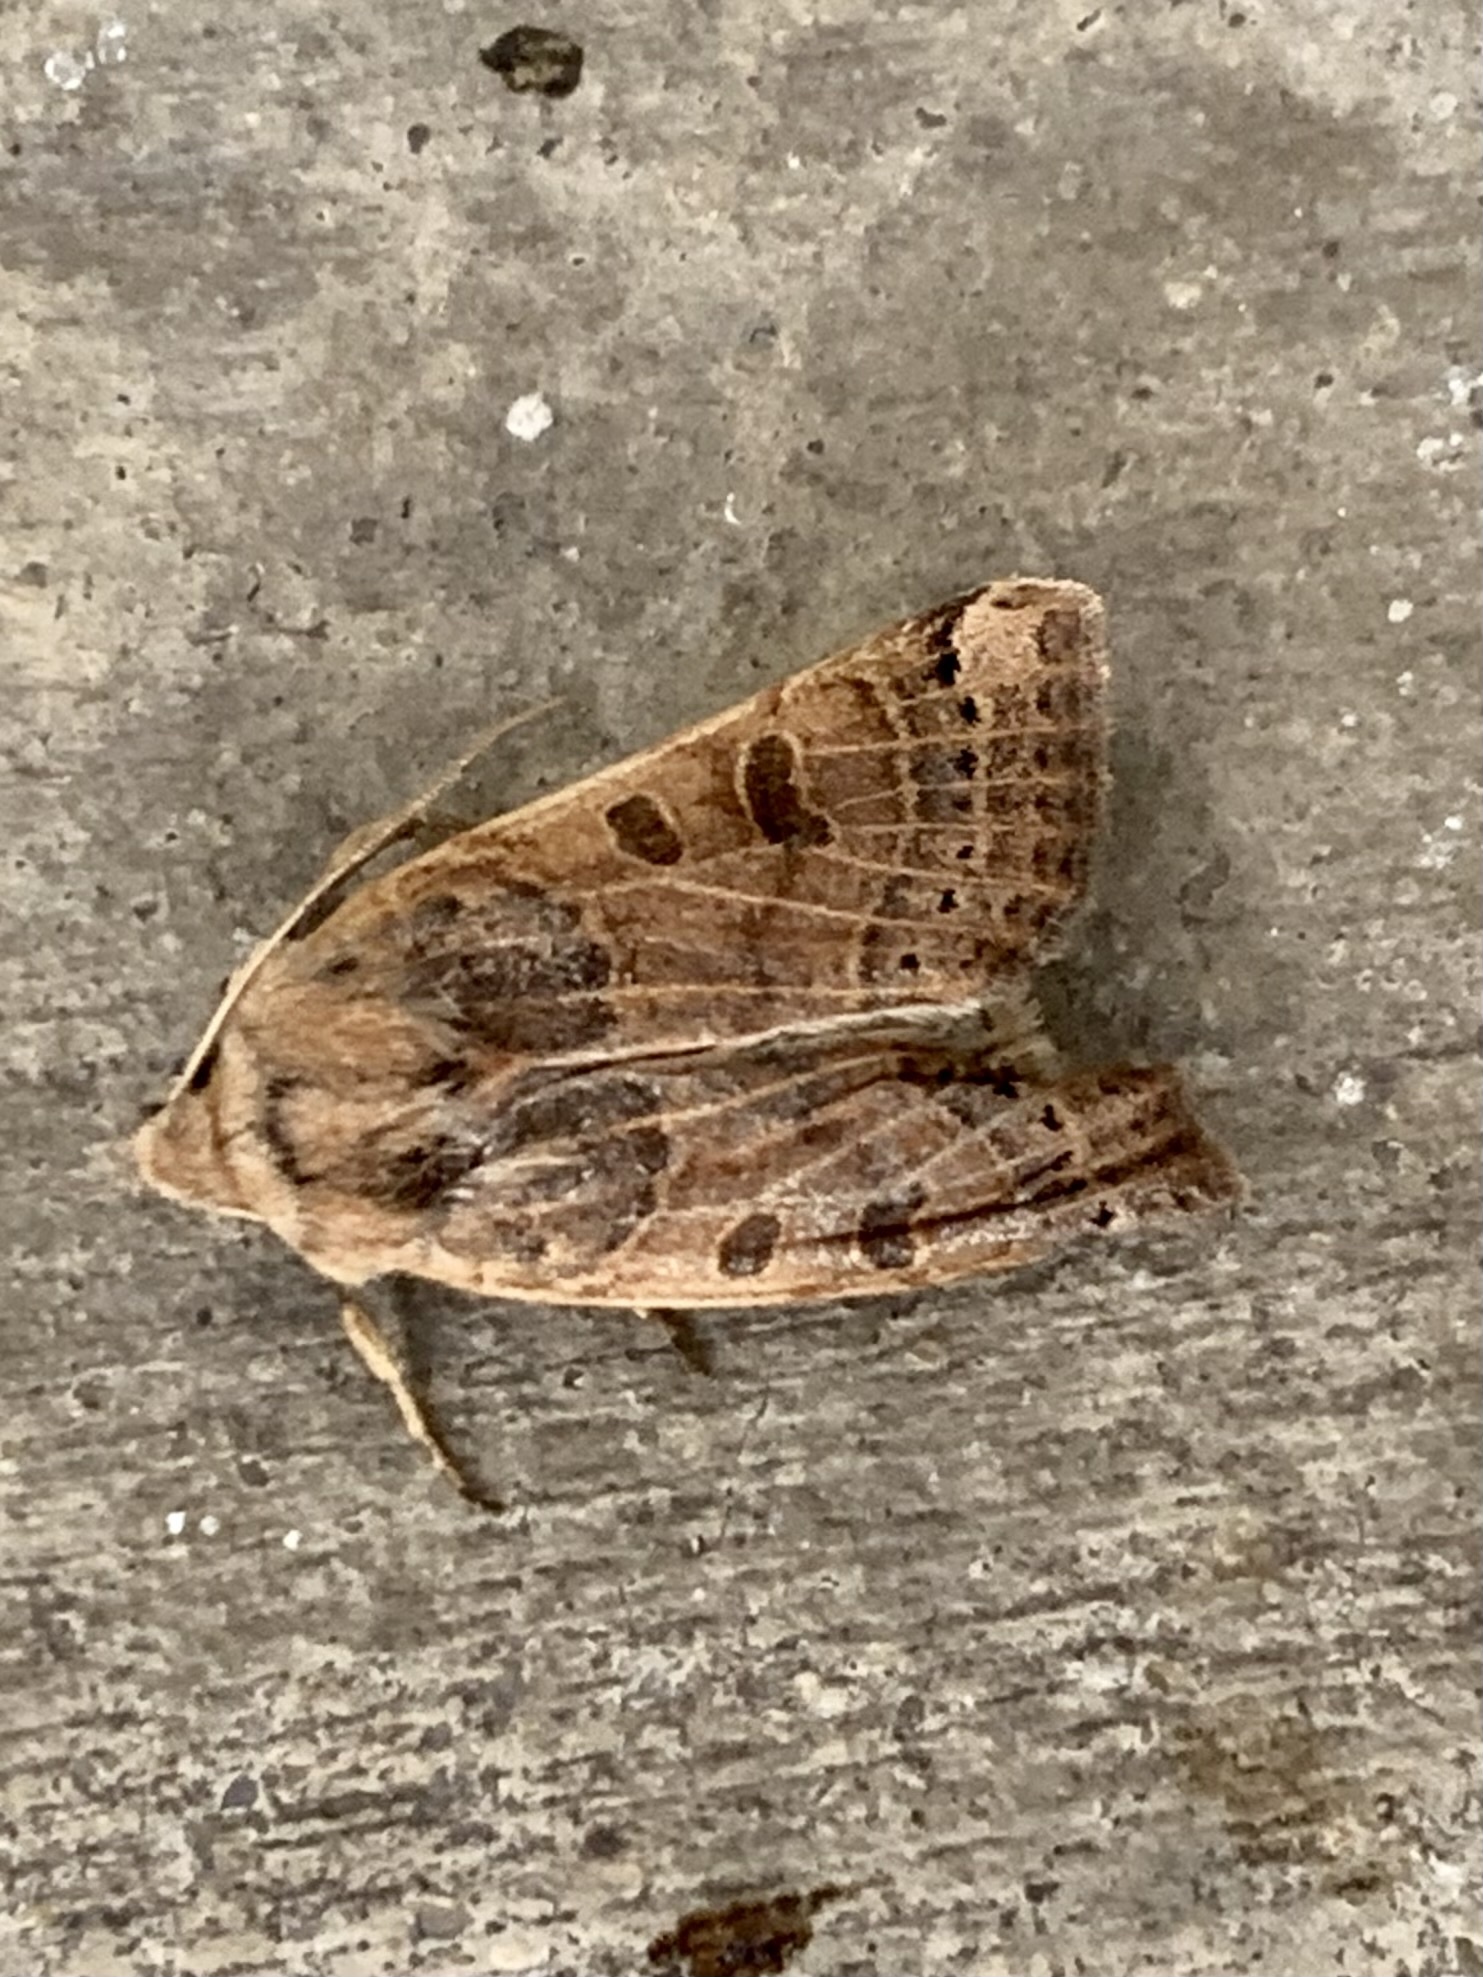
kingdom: Animalia
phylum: Arthropoda
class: Insecta
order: Lepidoptera
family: Noctuidae
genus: Agrochola
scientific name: Agrochola lunosa
